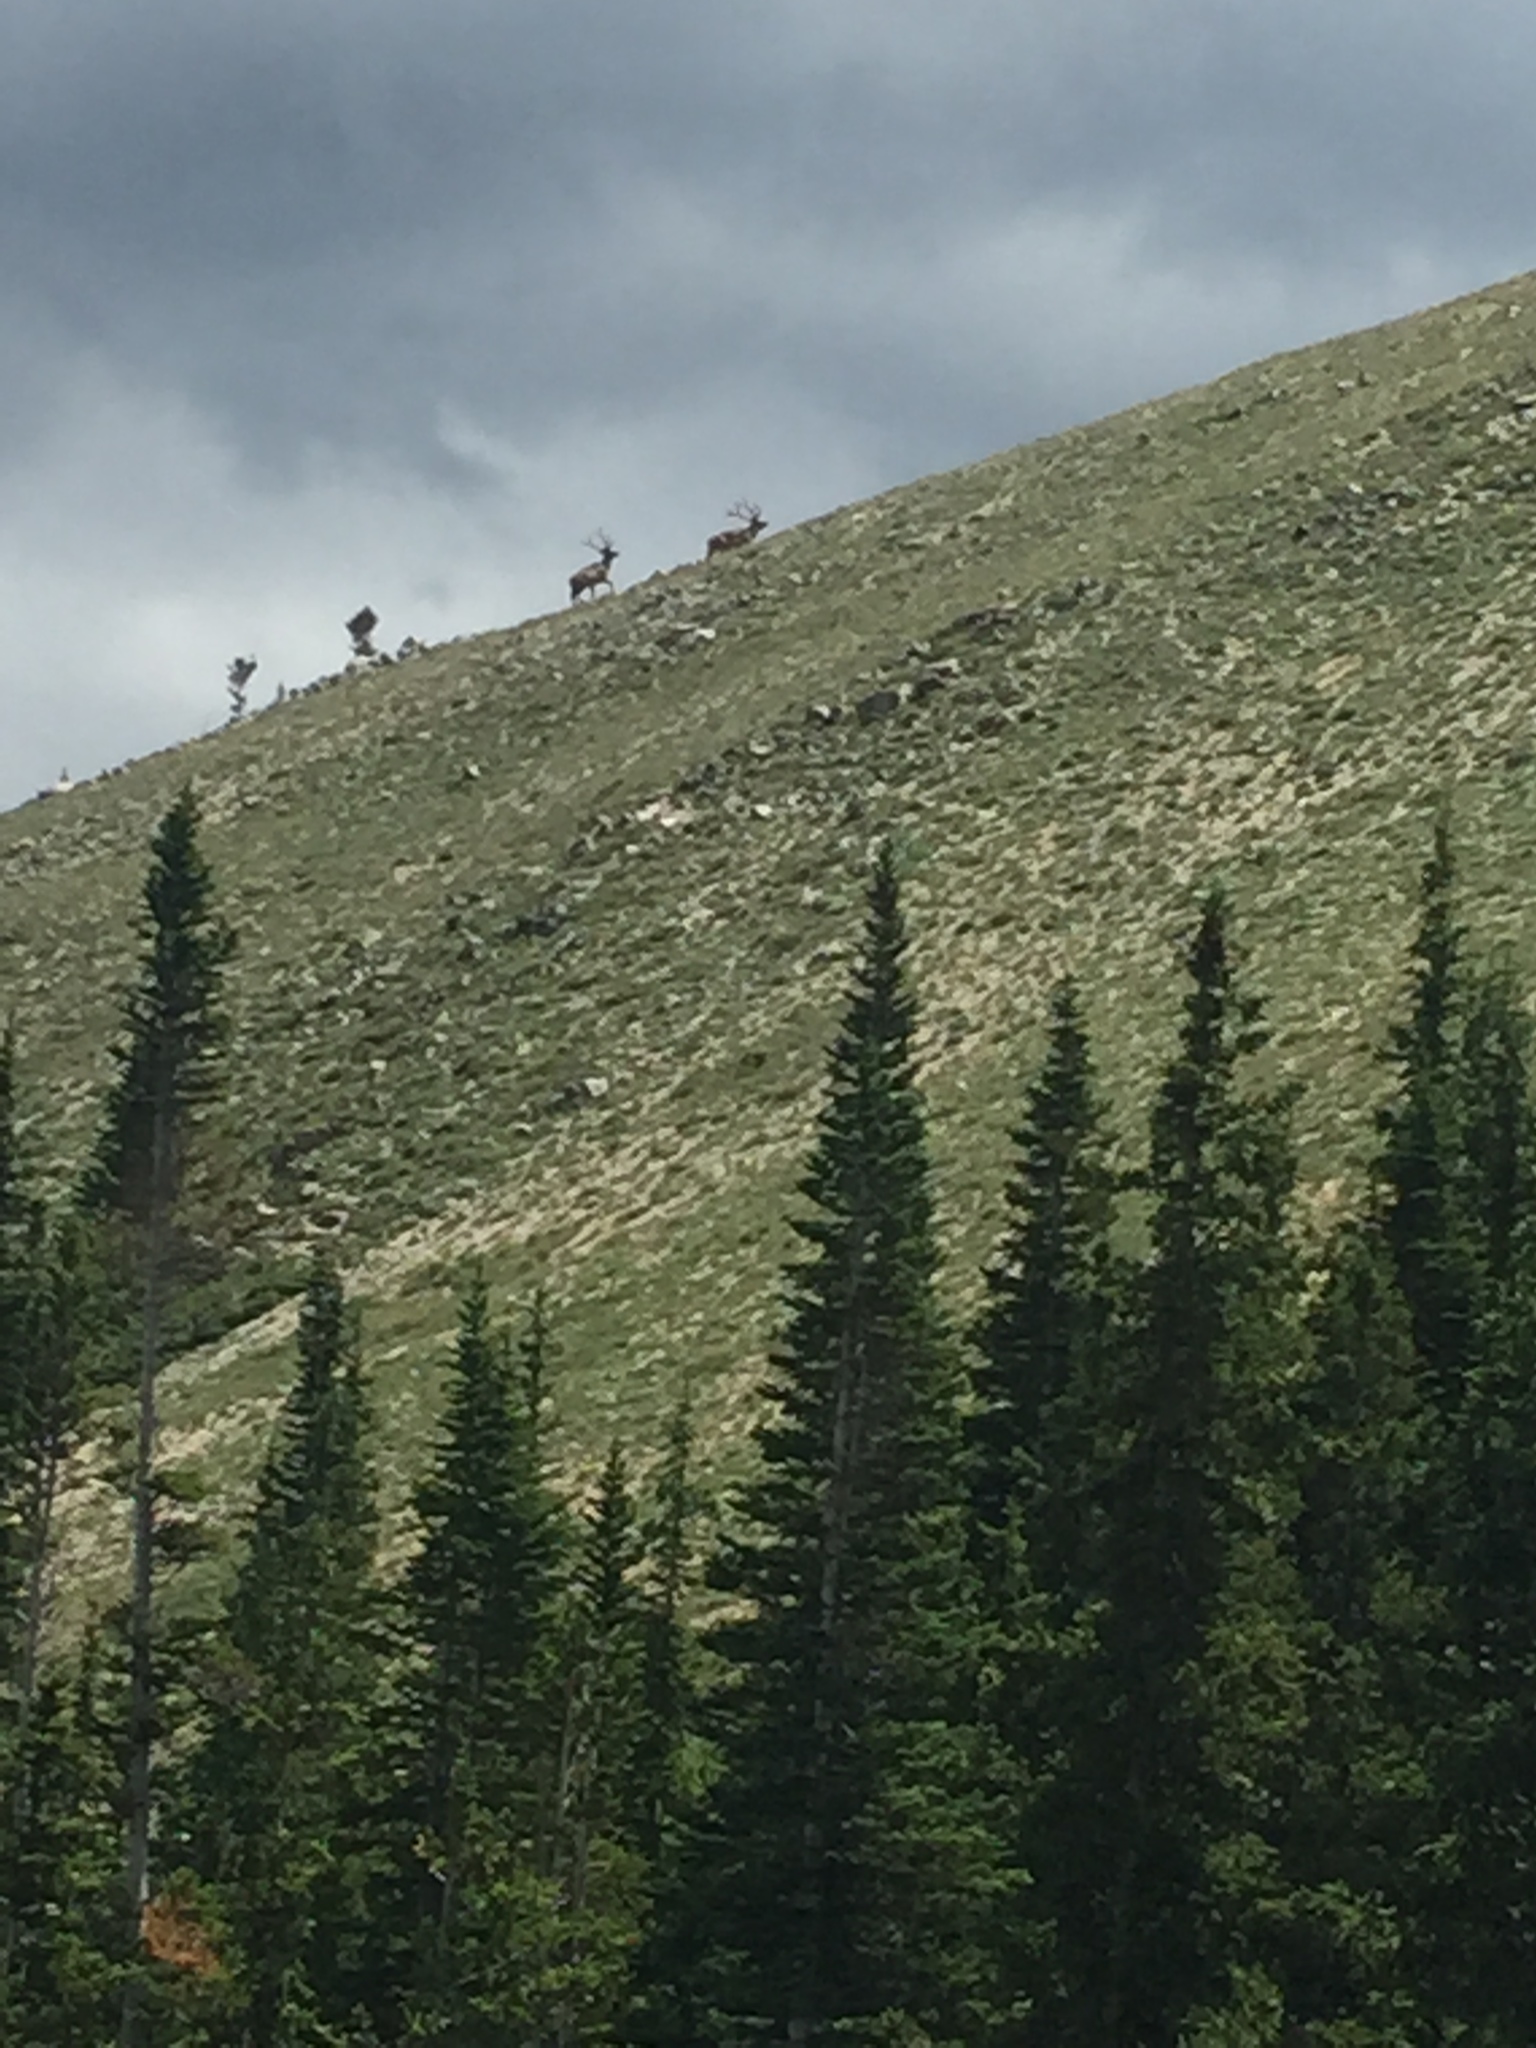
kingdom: Animalia
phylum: Chordata
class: Mammalia
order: Artiodactyla
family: Cervidae
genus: Cervus
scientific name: Cervus elaphus
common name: Red deer
